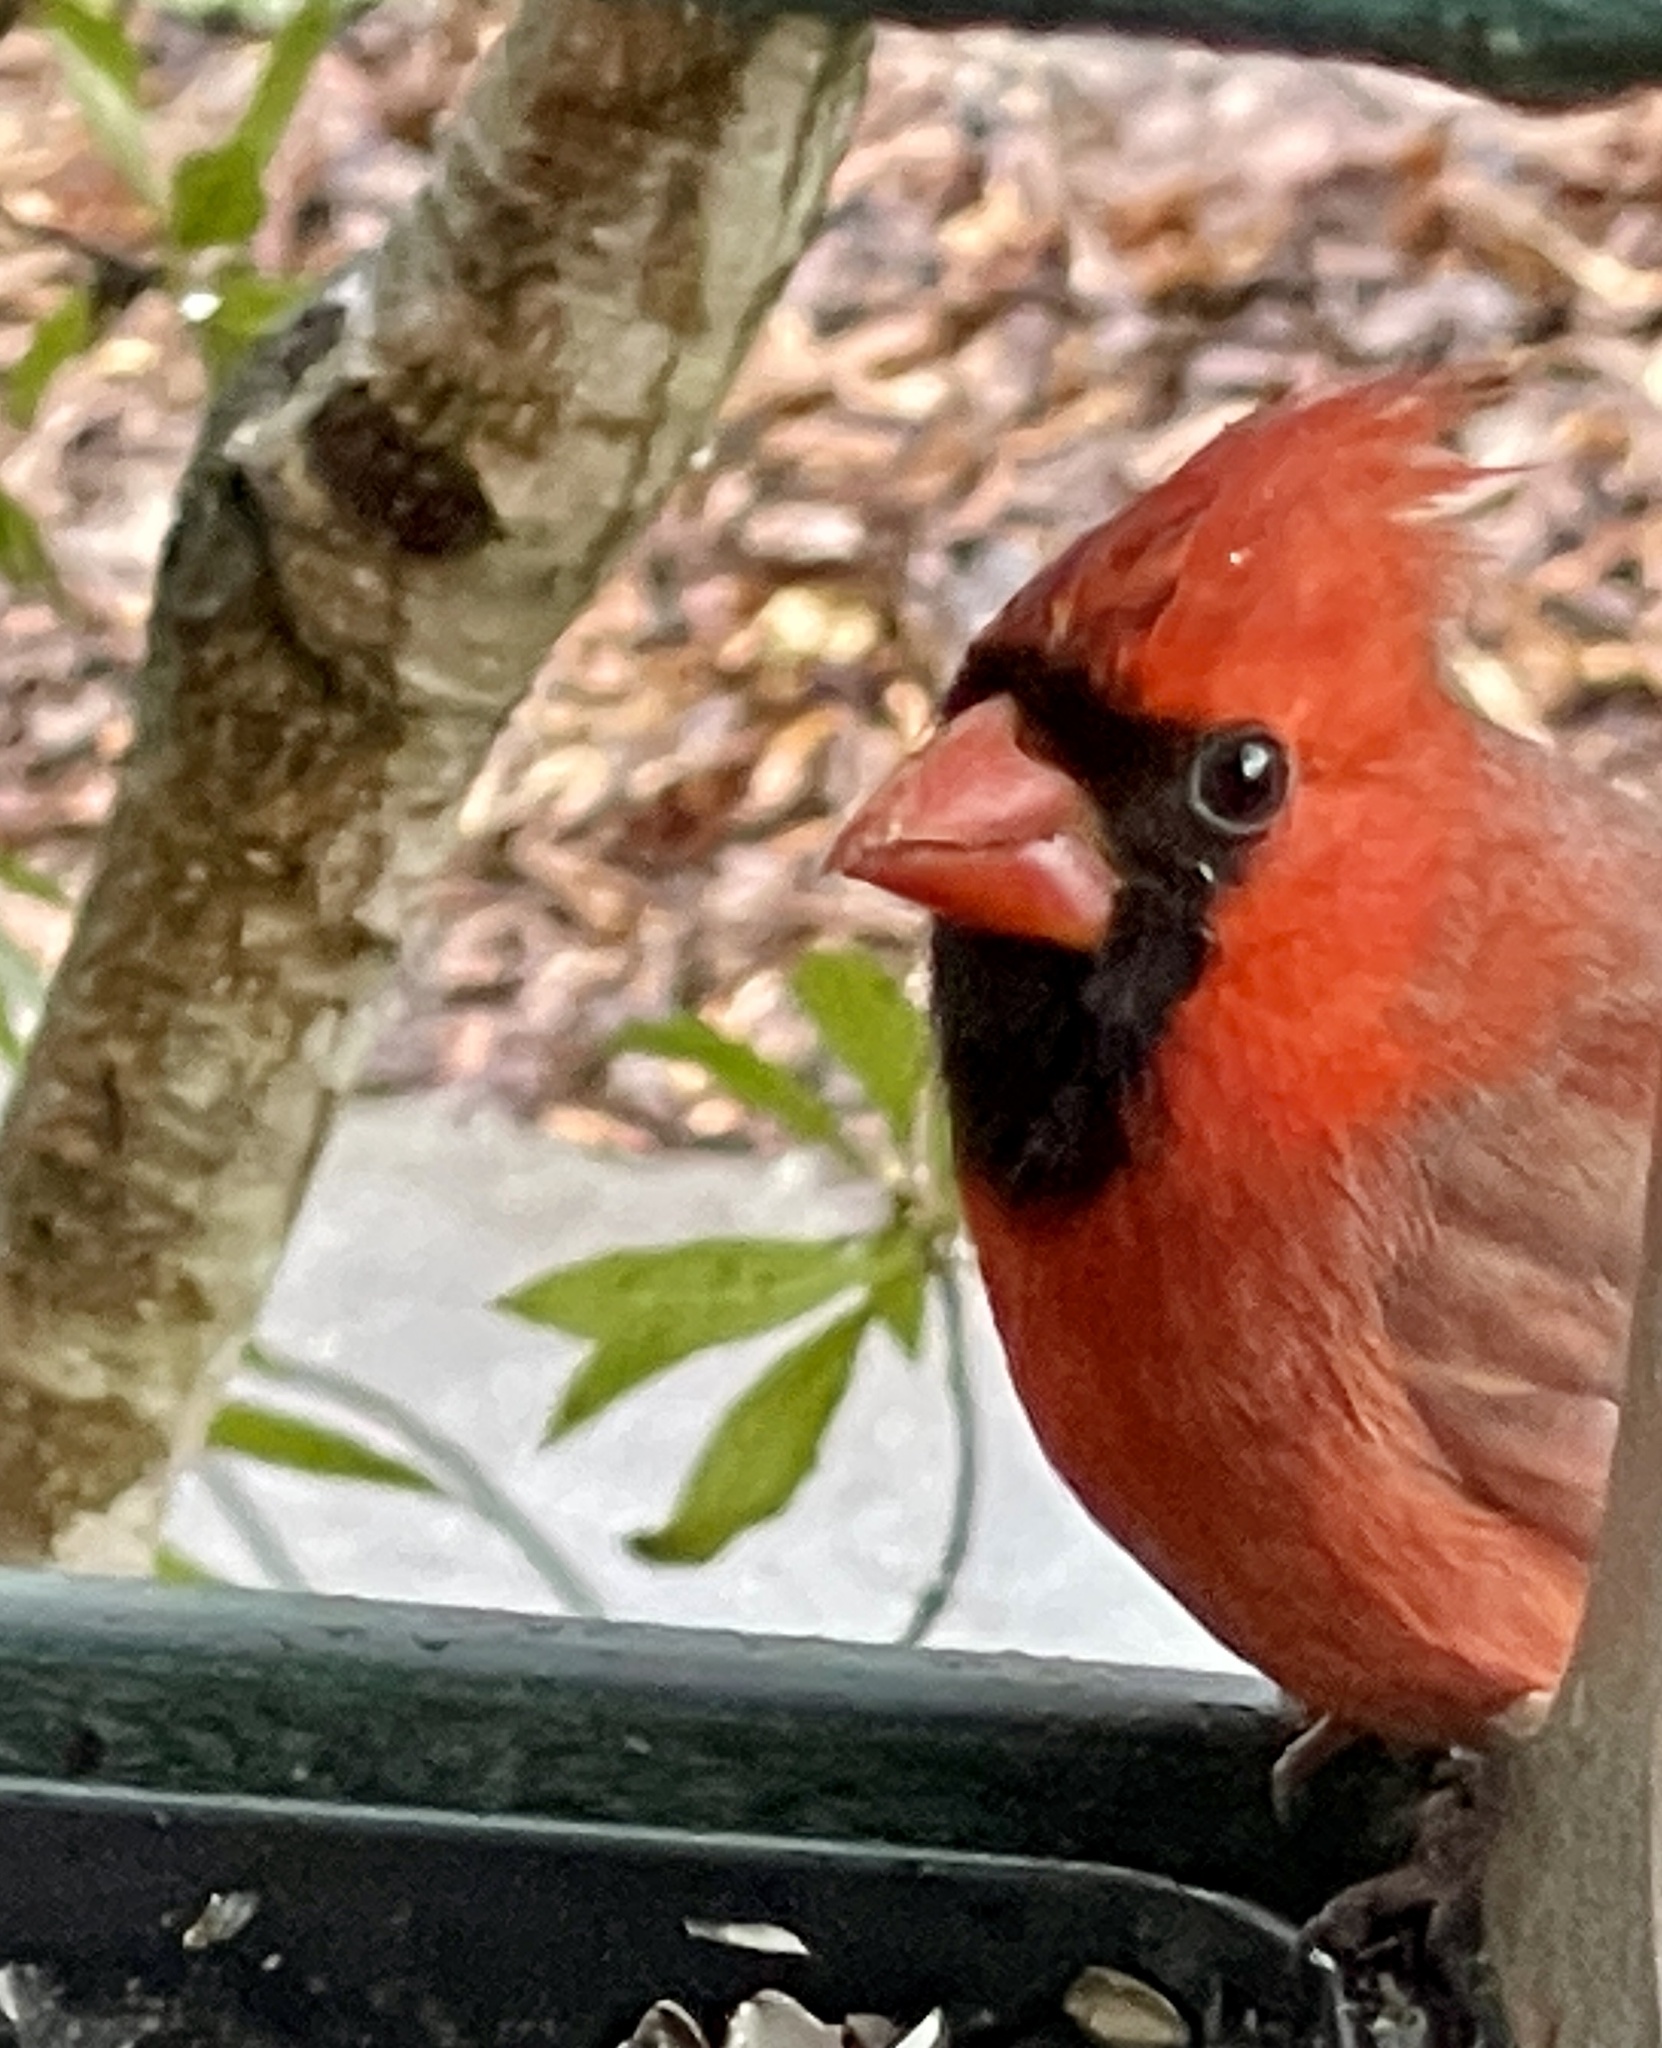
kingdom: Animalia
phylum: Chordata
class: Aves
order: Passeriformes
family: Cardinalidae
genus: Cardinalis
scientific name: Cardinalis cardinalis
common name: Northern cardinal
